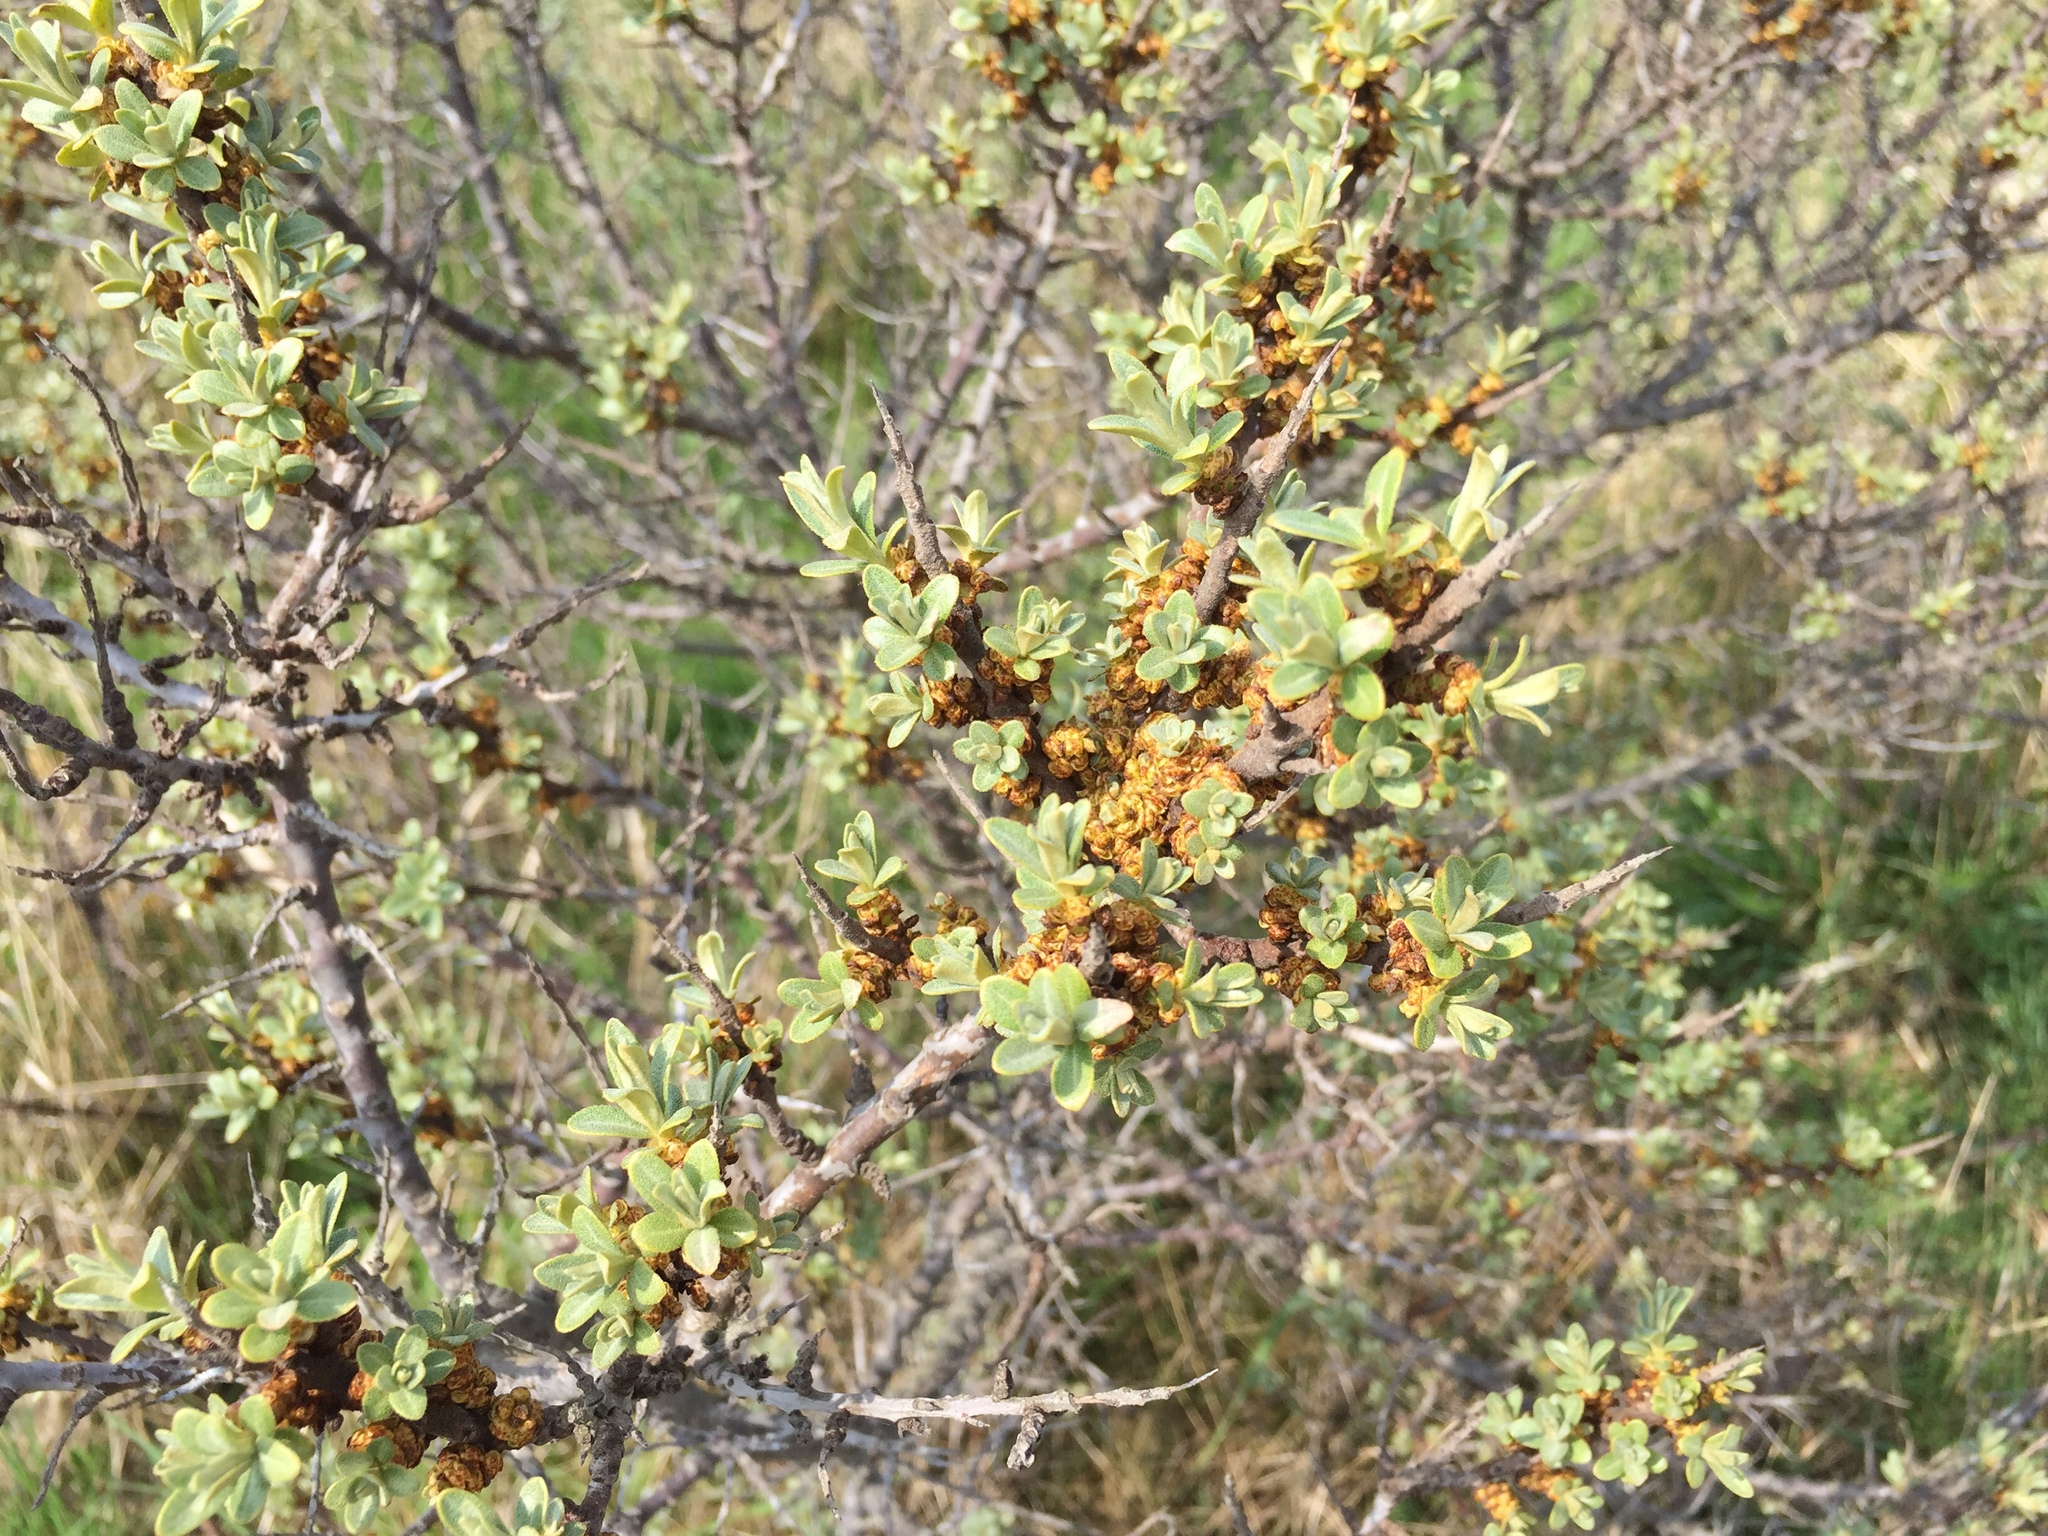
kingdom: Plantae
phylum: Tracheophyta
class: Magnoliopsida
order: Rosales
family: Elaeagnaceae
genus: Hippophae
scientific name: Hippophae rhamnoides
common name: Sea-buckthorn
